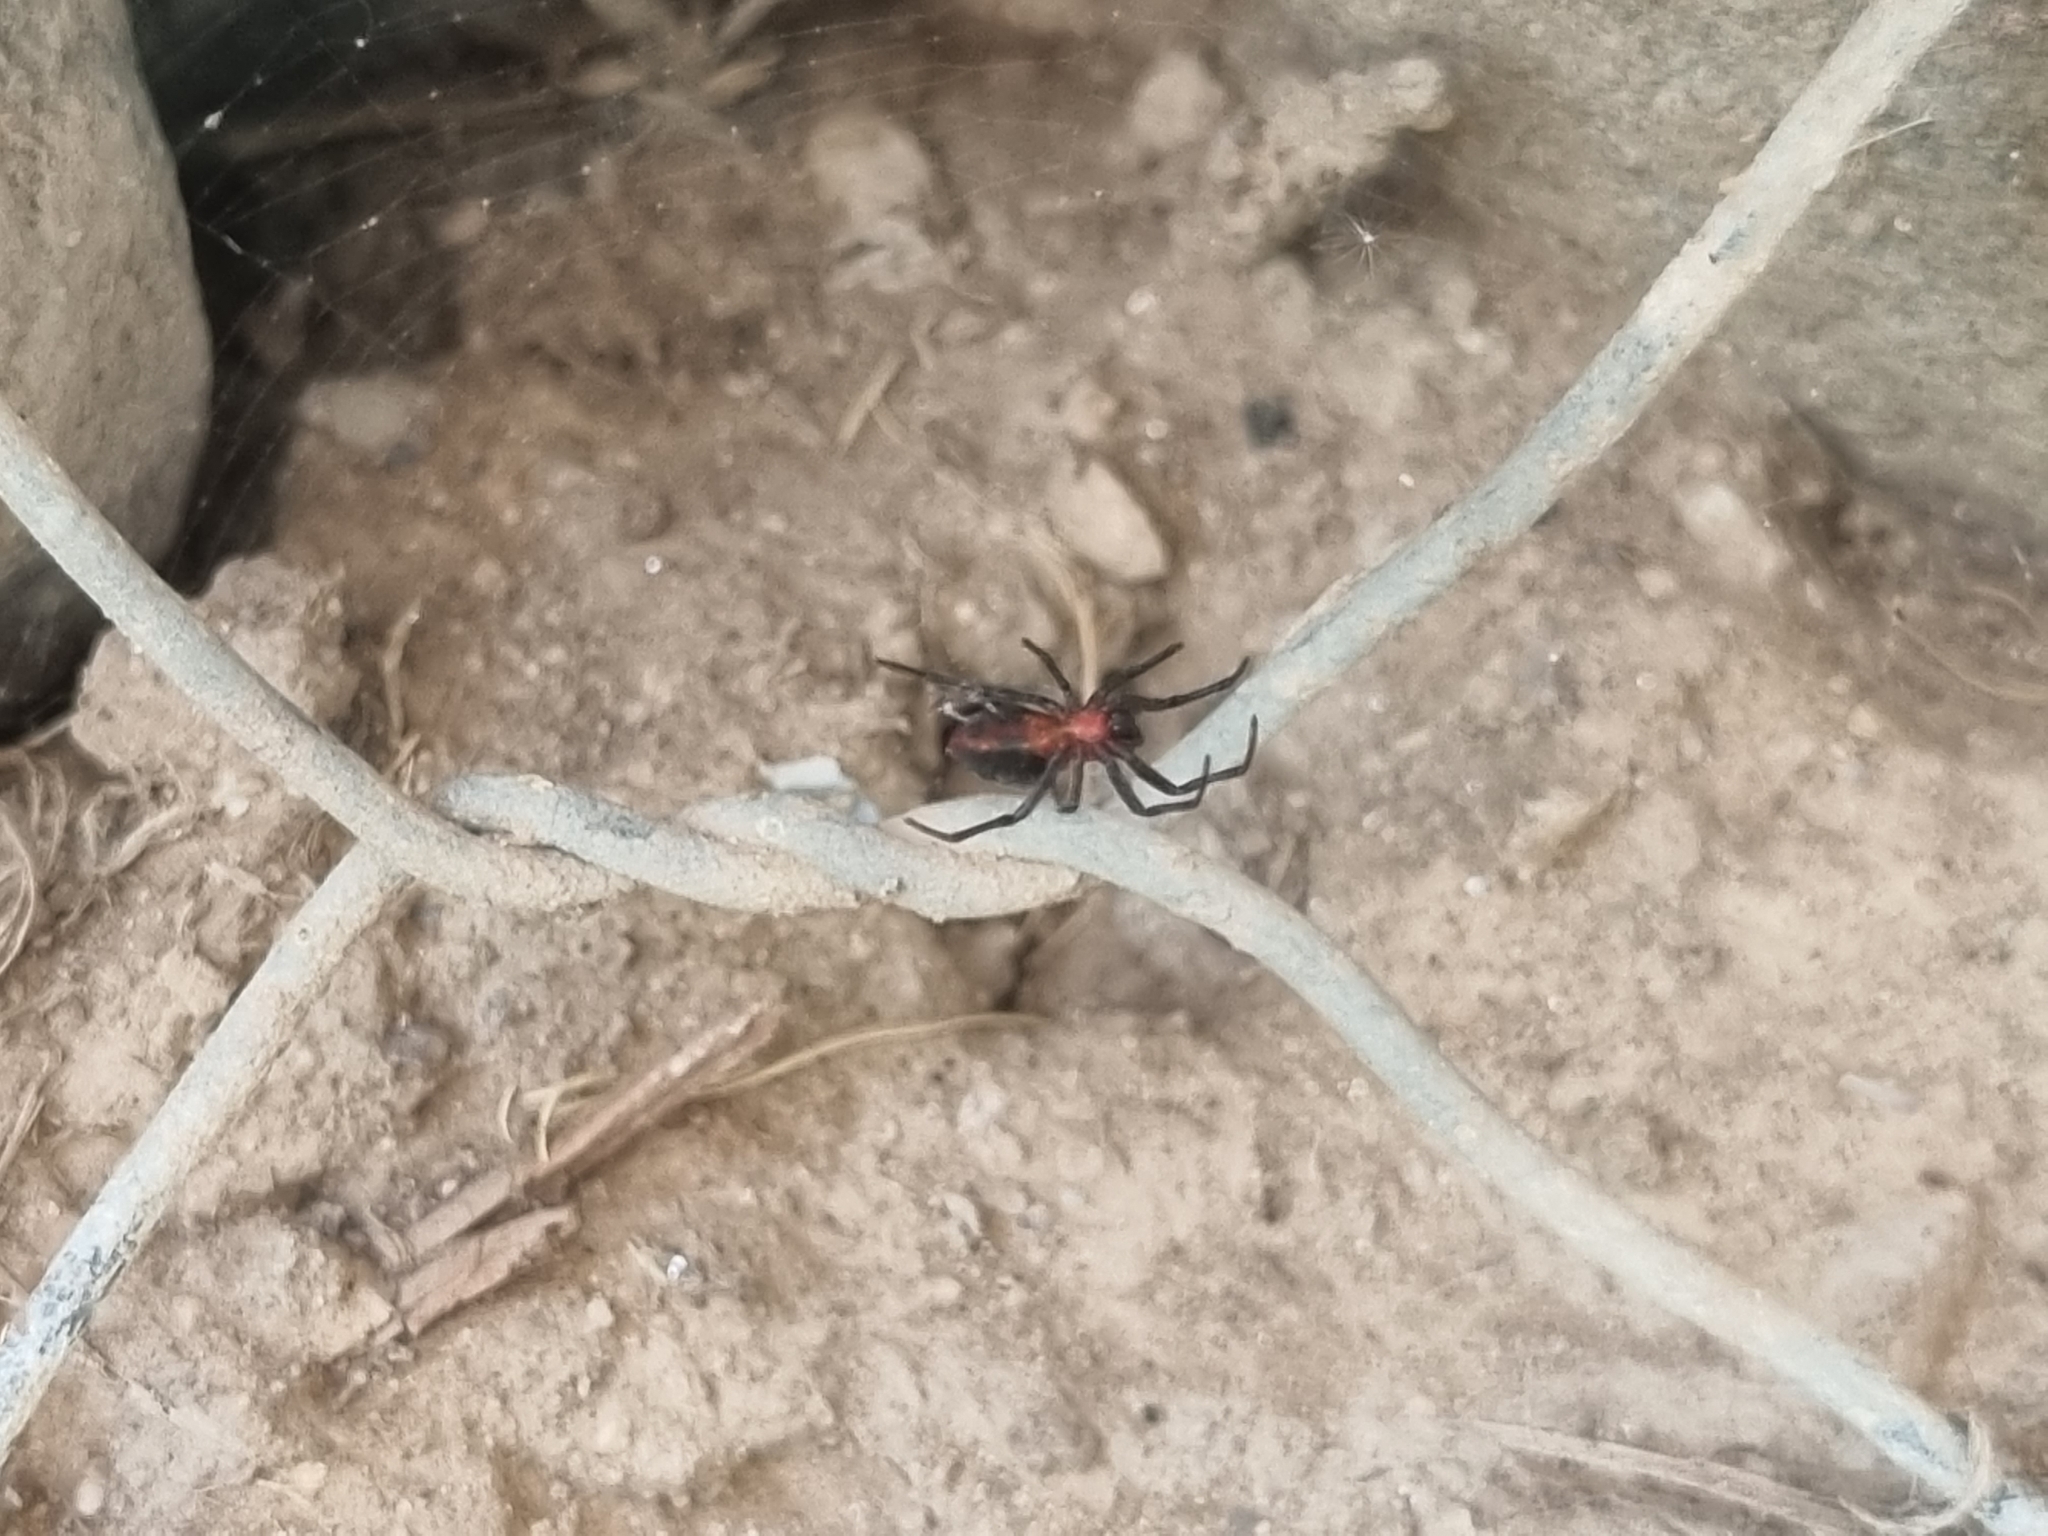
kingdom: Animalia
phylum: Arthropoda
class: Arachnida
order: Araneae
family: Araneidae
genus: Alpaida
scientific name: Alpaida carminea
